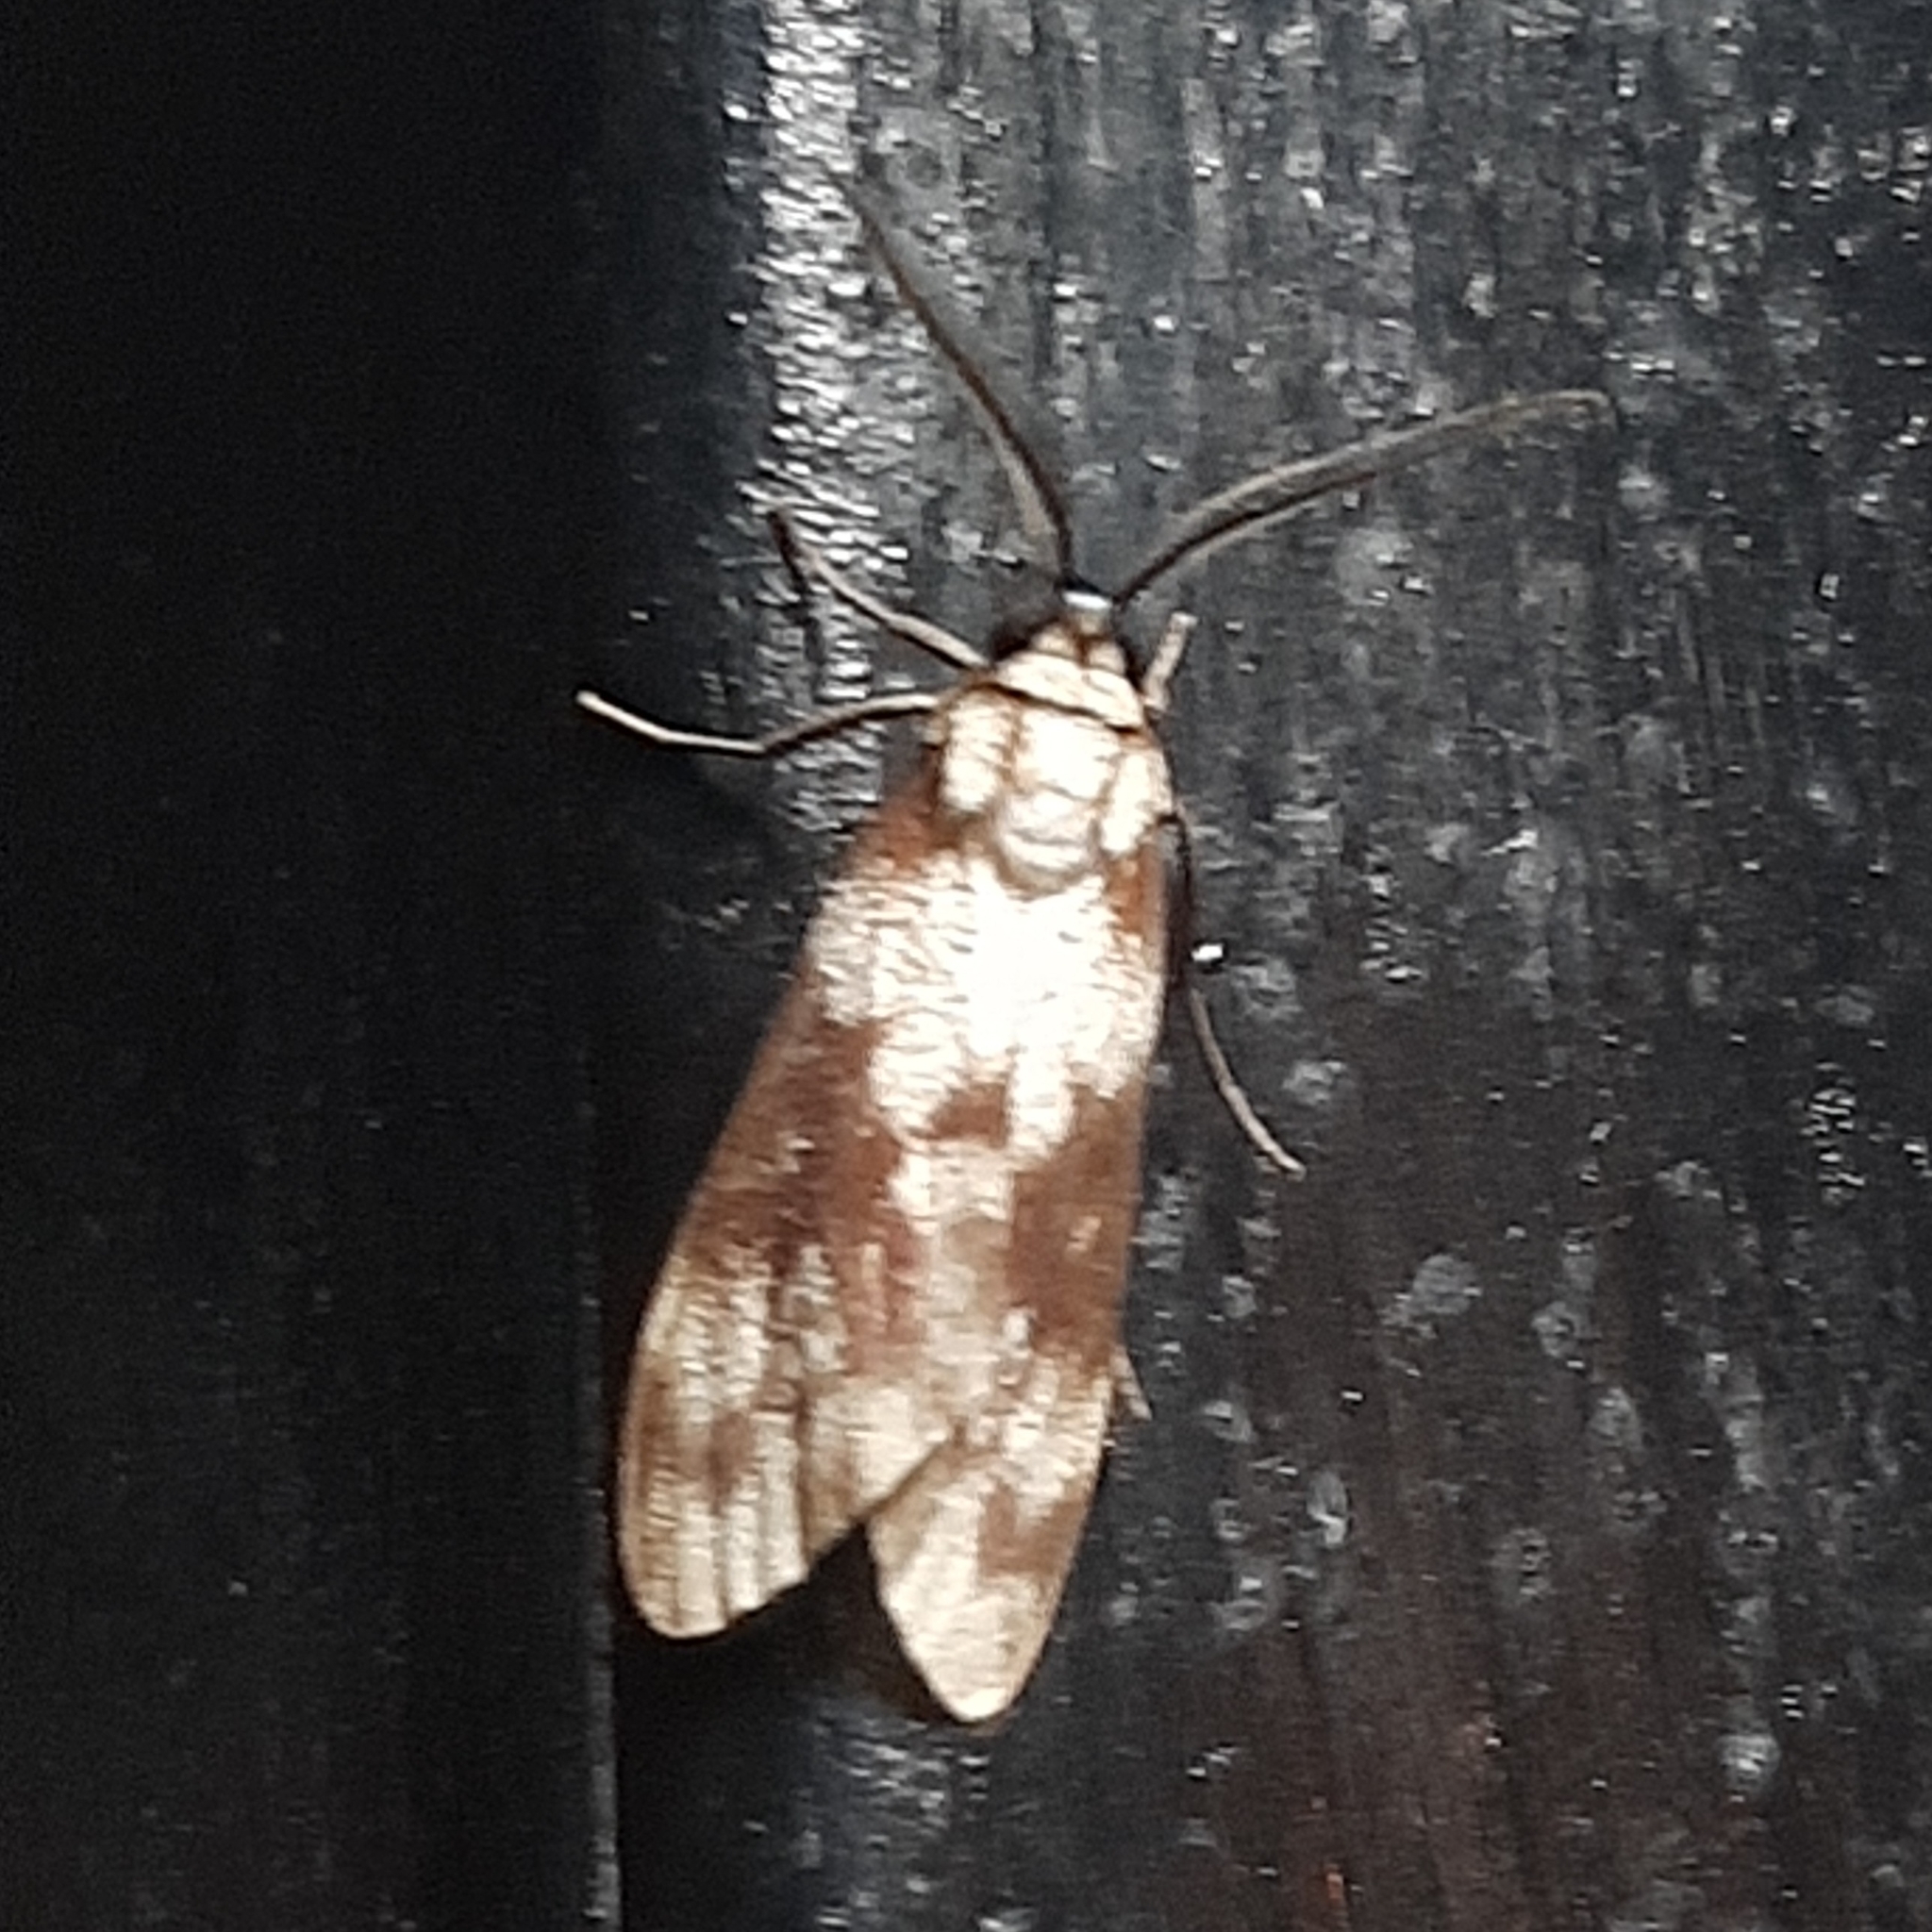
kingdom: Animalia
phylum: Arthropoda
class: Insecta
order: Lepidoptera
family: Erebidae
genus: Eucereon
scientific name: Eucereon discolor
